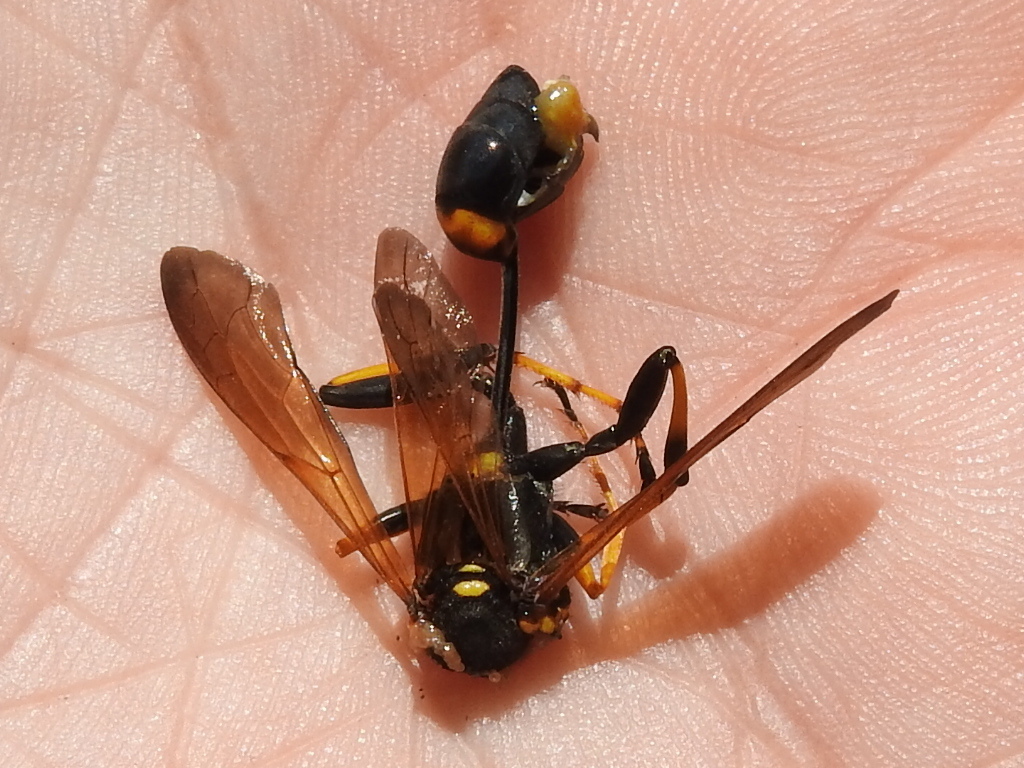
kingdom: Animalia
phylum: Arthropoda
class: Insecta
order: Hymenoptera
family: Sphecidae
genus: Sceliphron
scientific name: Sceliphron caementarium
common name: Mud dauber
